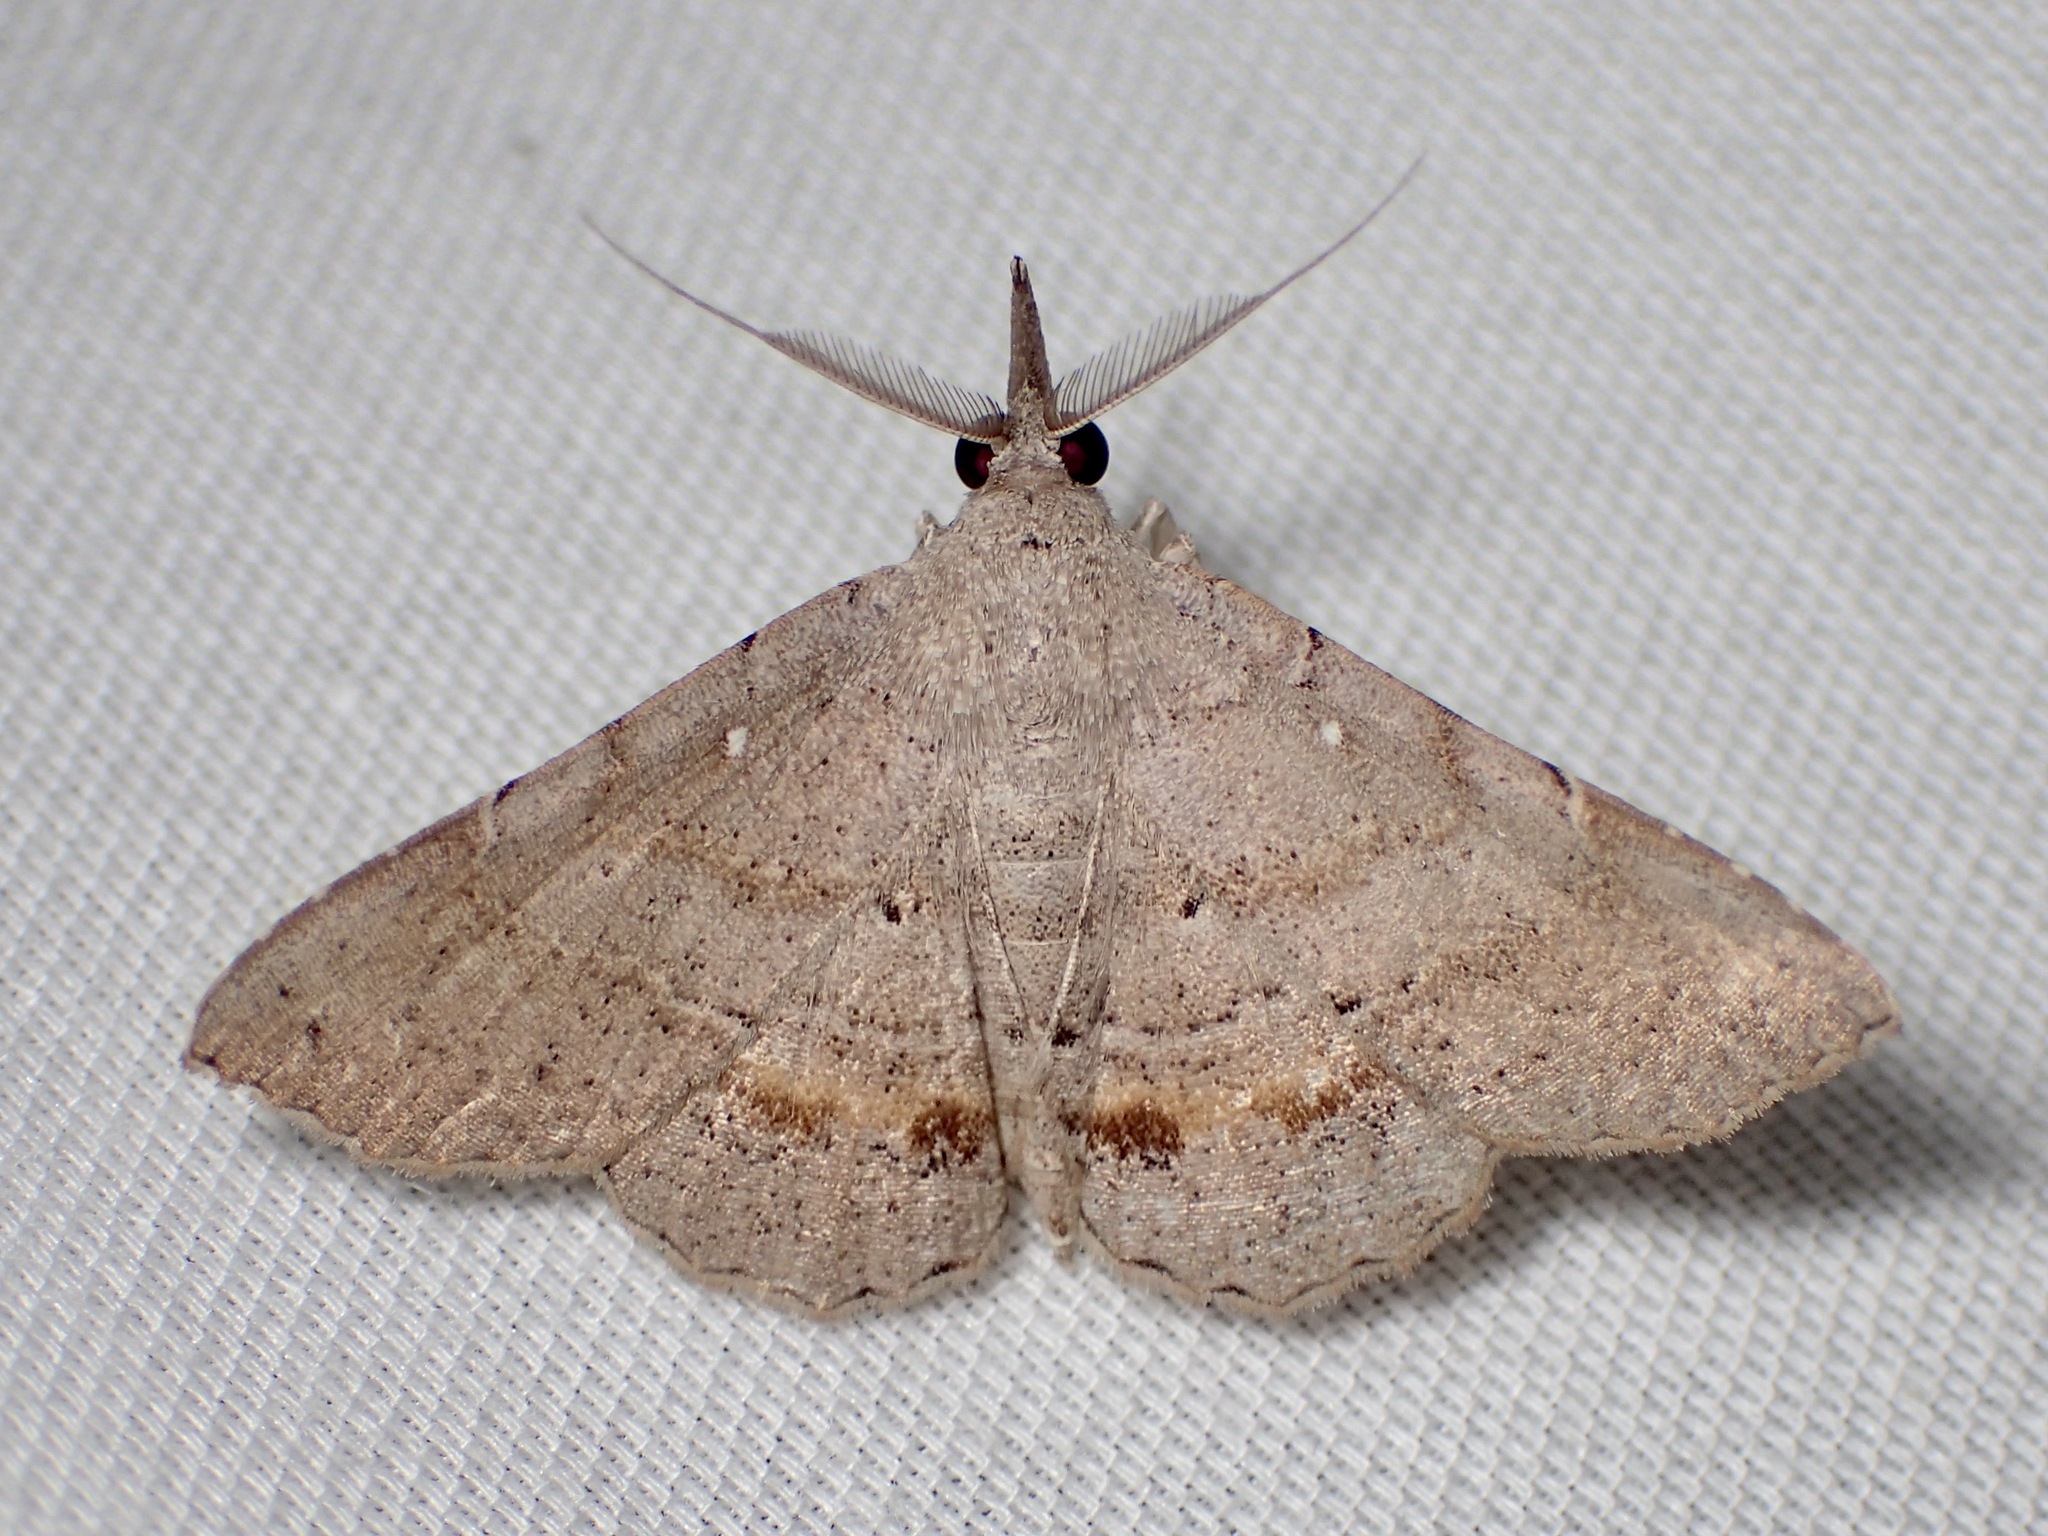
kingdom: Animalia
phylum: Arthropoda
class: Insecta
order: Lepidoptera
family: Erebidae
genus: Heterormista
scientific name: Heterormista modesta
